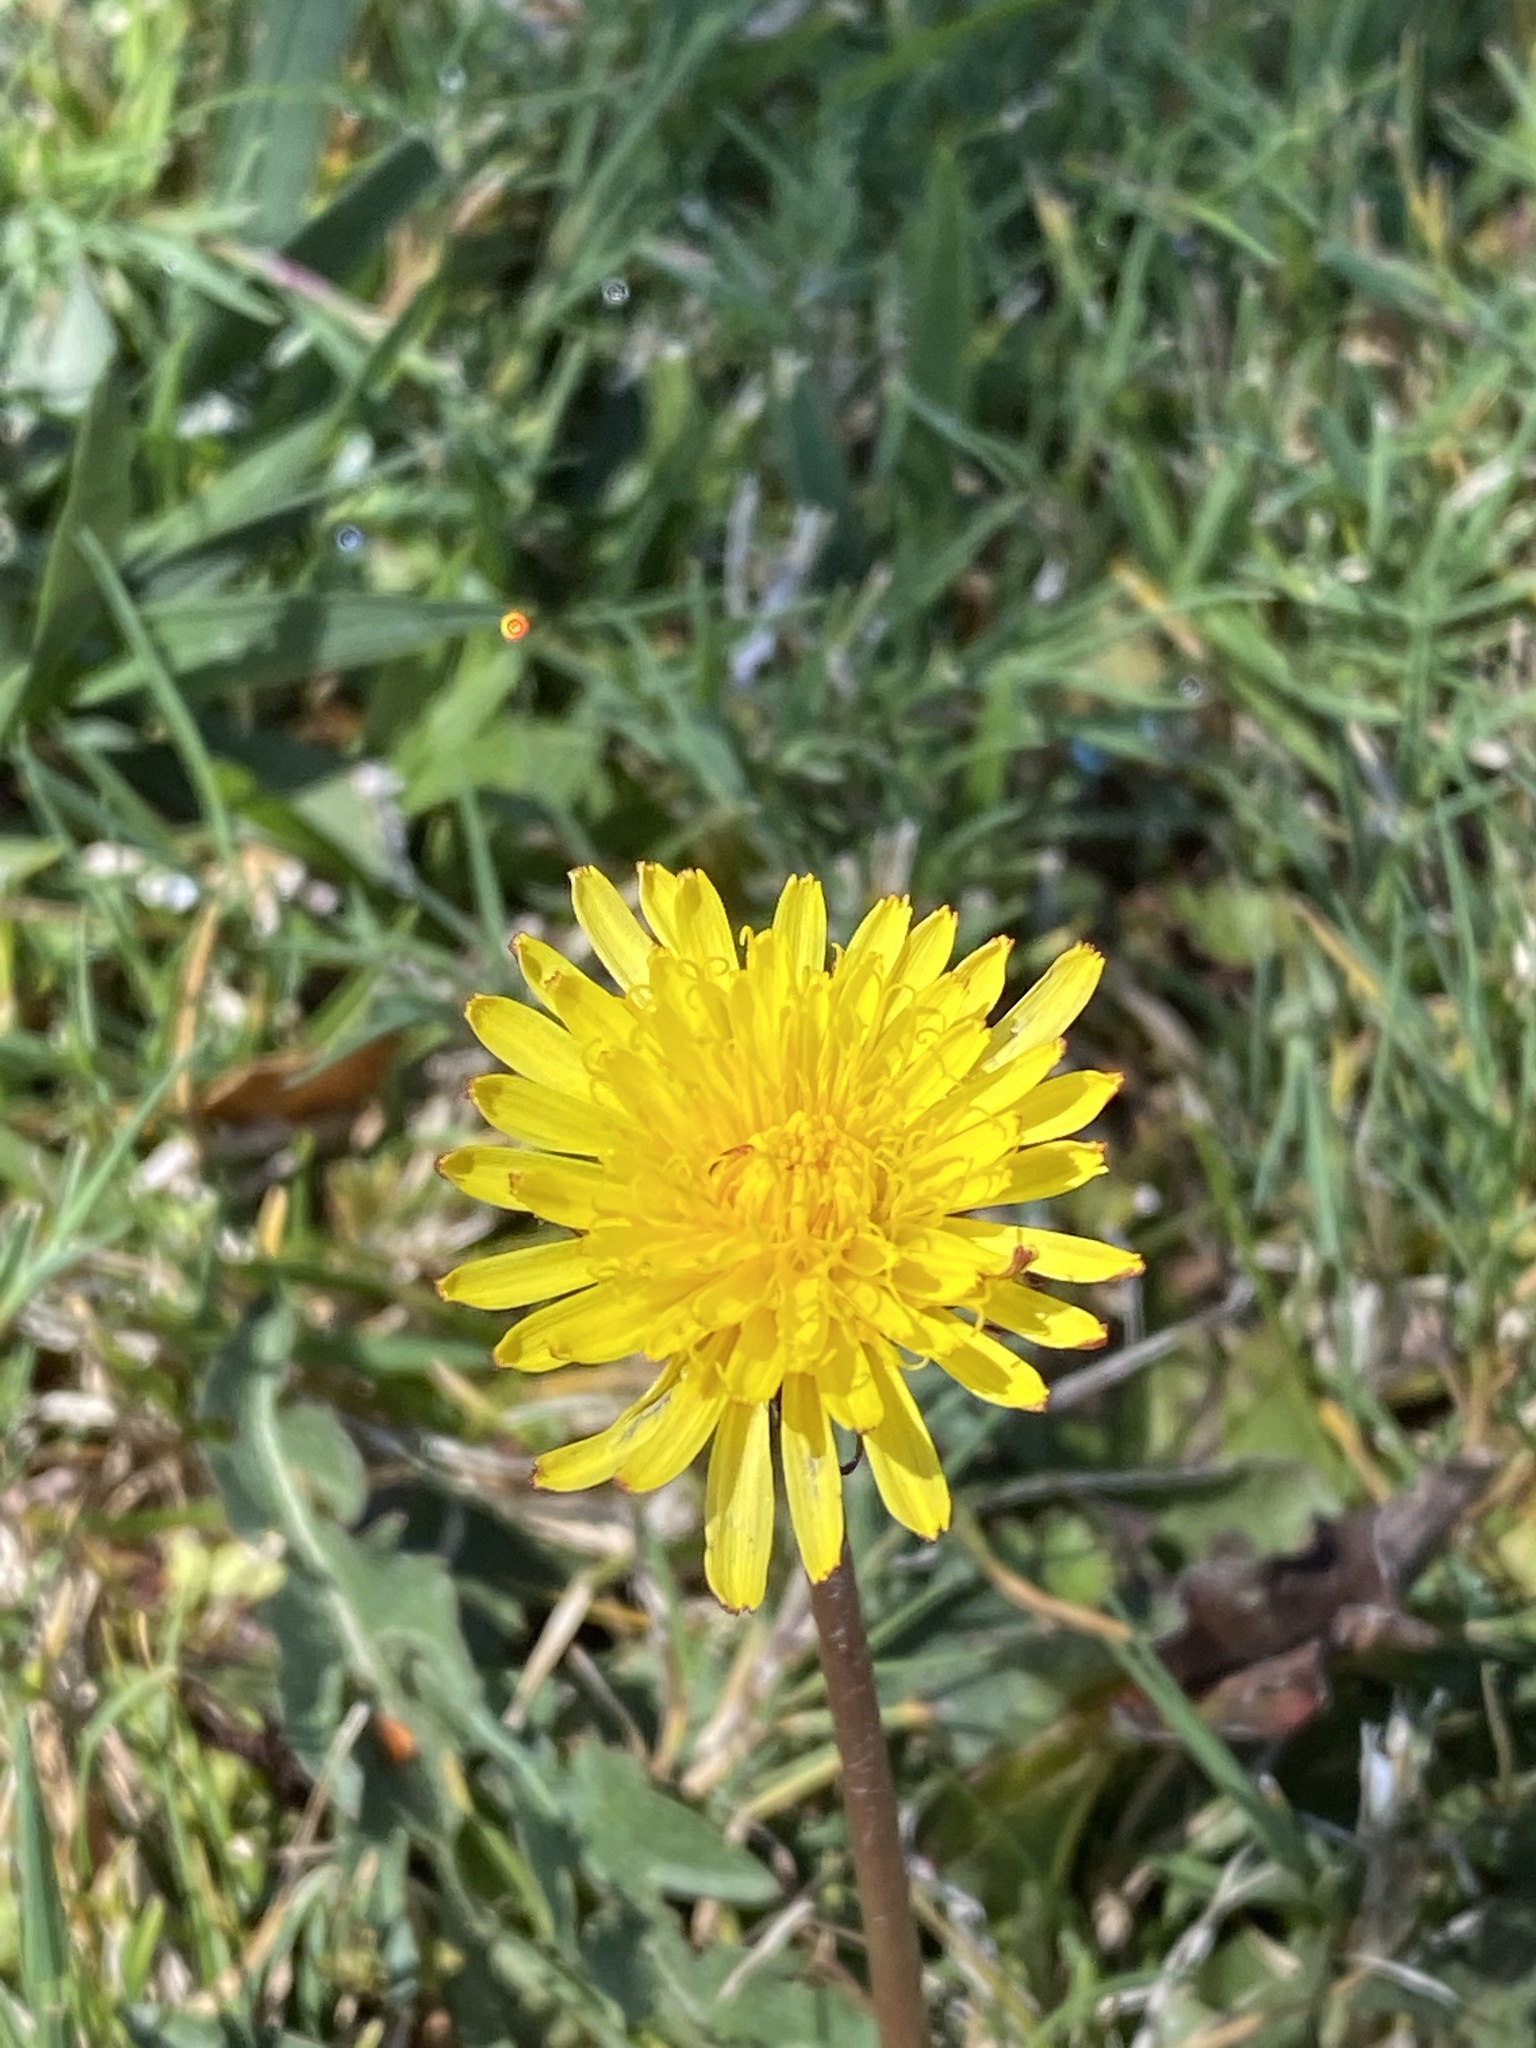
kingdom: Plantae
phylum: Tracheophyta
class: Magnoliopsida
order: Asterales
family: Asteraceae
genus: Taraxacum
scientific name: Taraxacum officinale
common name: Common dandelion
